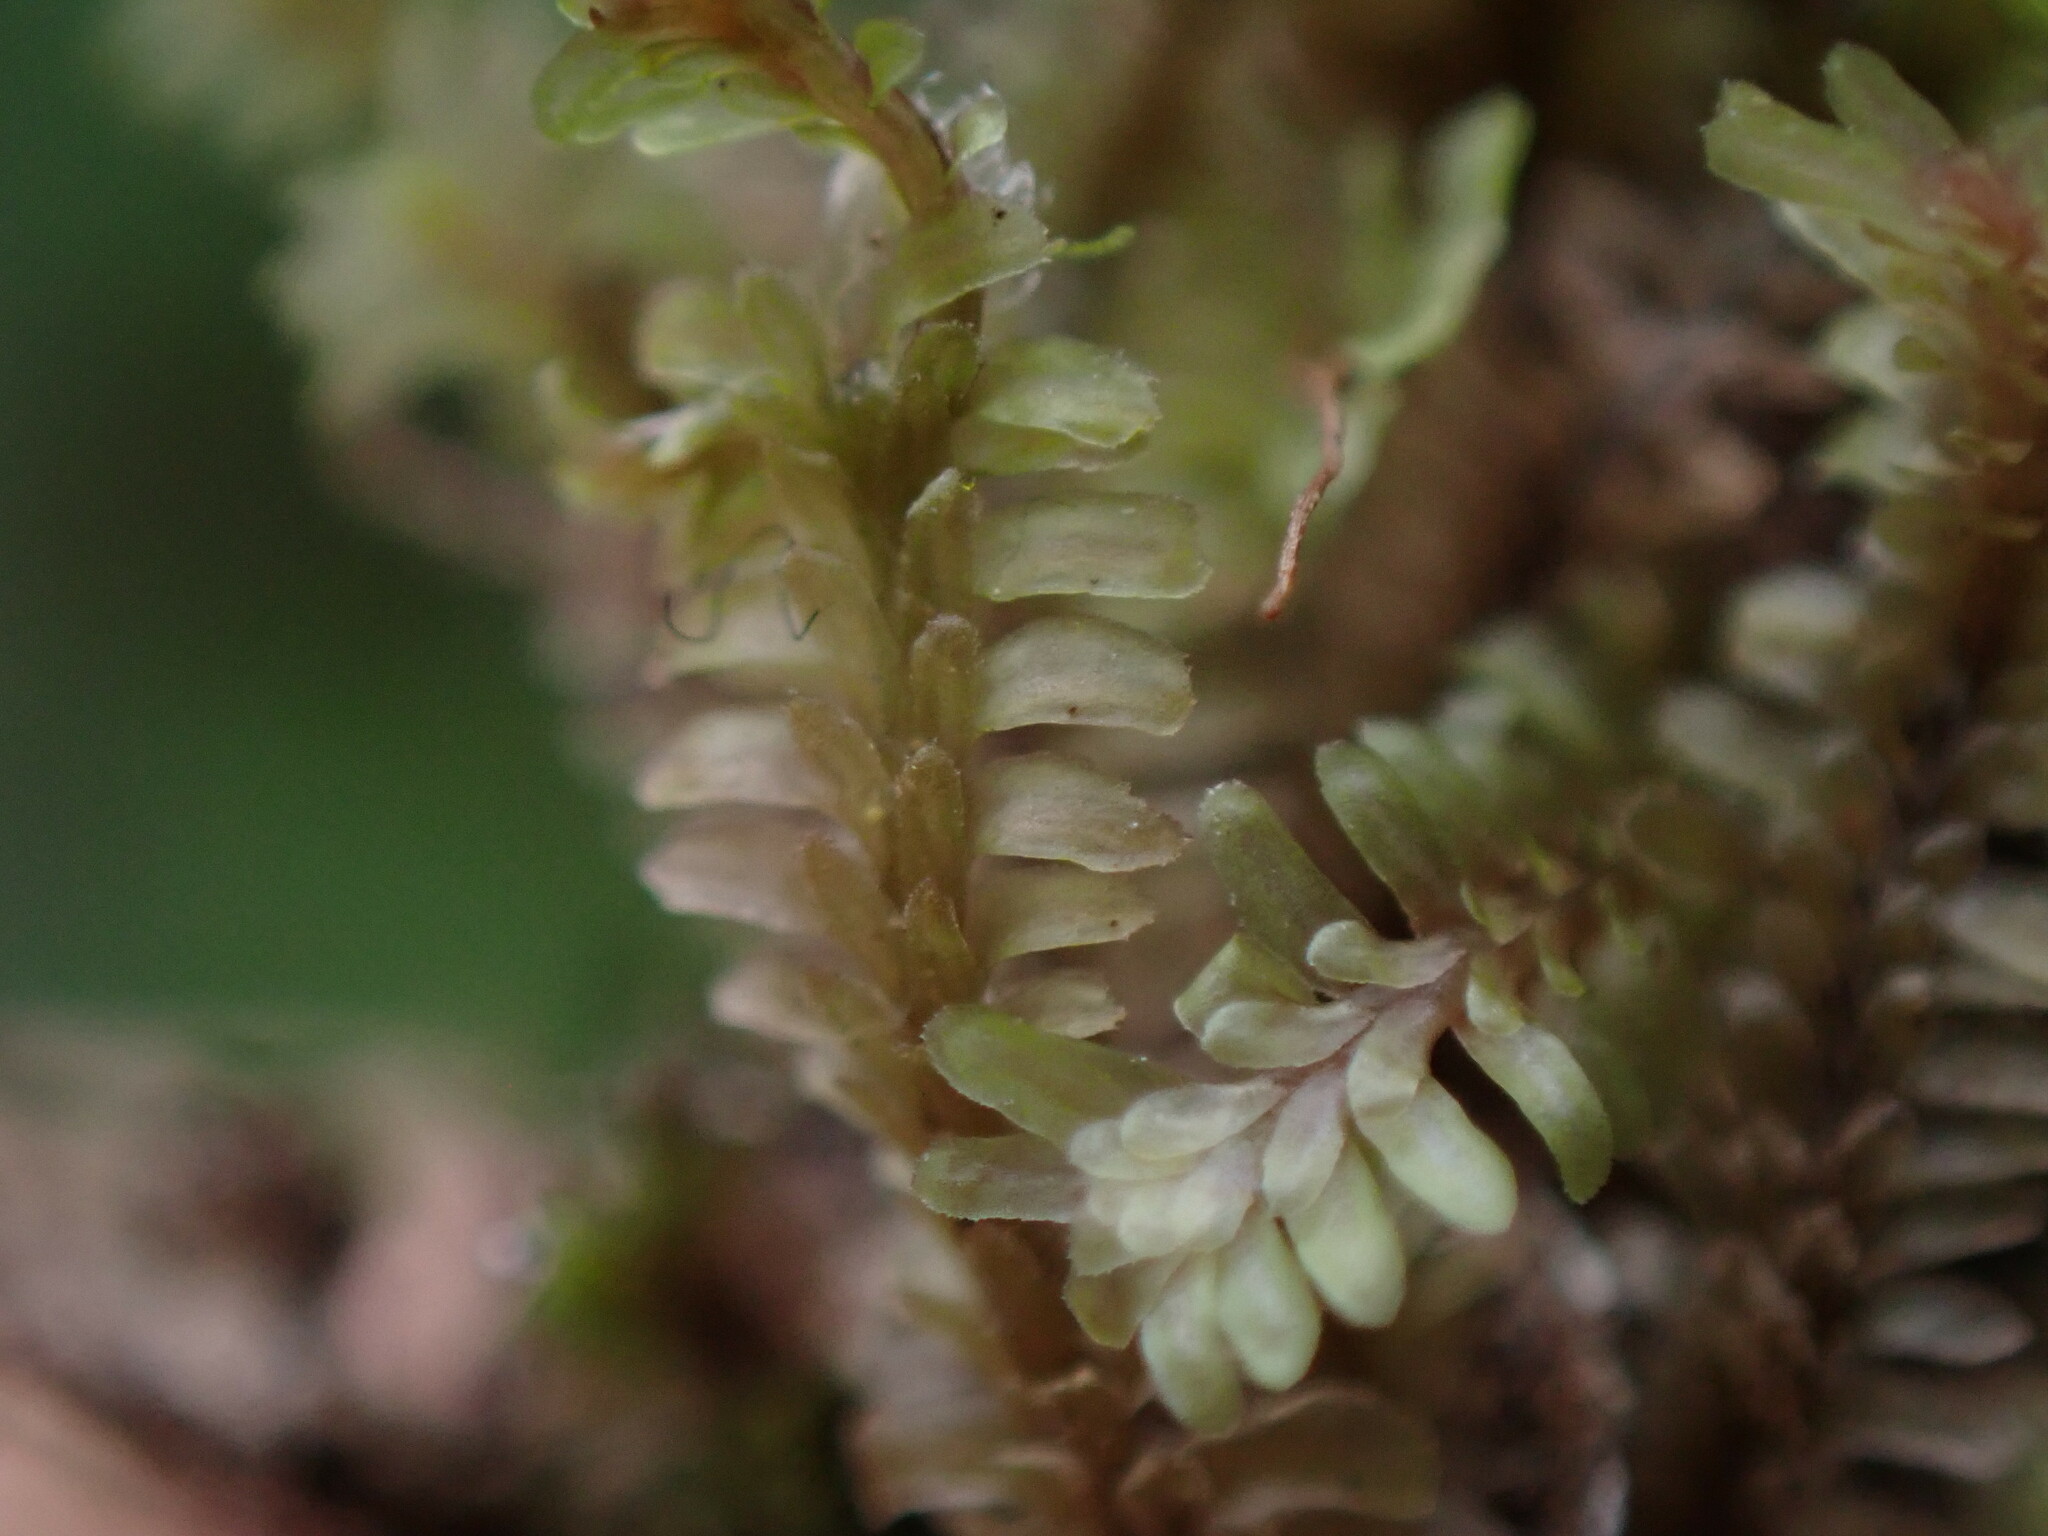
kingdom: Plantae
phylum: Marchantiophyta
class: Jungermanniopsida
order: Jungermanniales
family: Scapaniaceae
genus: Diplophyllum
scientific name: Diplophyllum albicans
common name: White earwort
